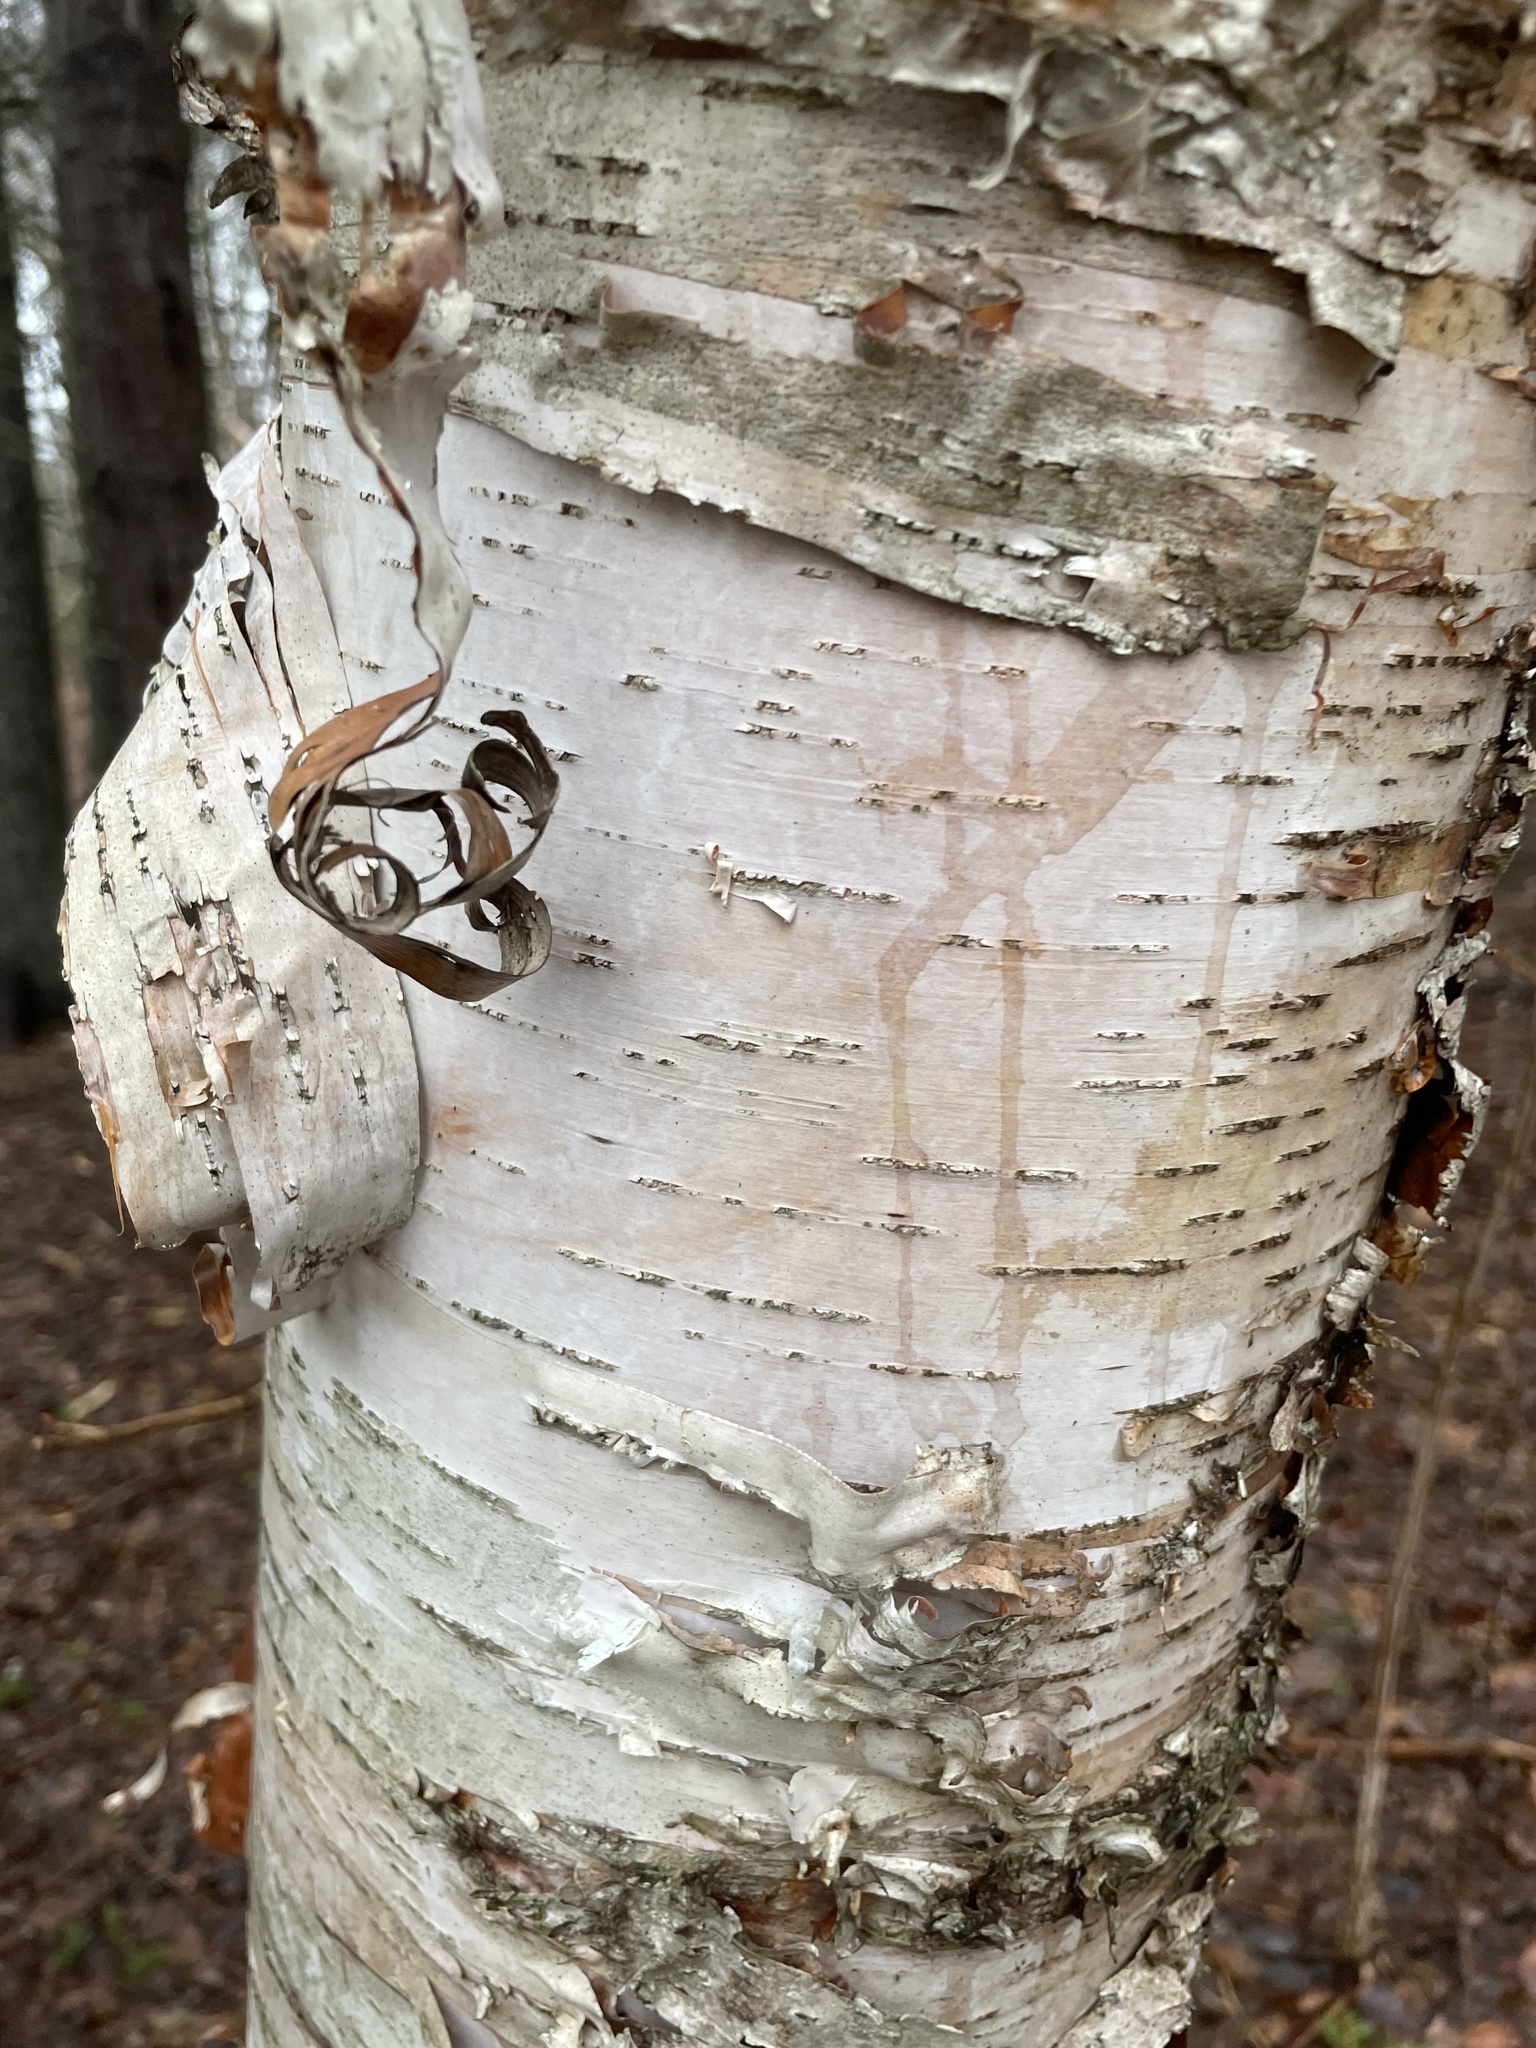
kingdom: Plantae
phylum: Tracheophyta
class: Magnoliopsida
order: Fagales
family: Betulaceae
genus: Betula
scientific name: Betula papyrifera
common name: Paper birch
